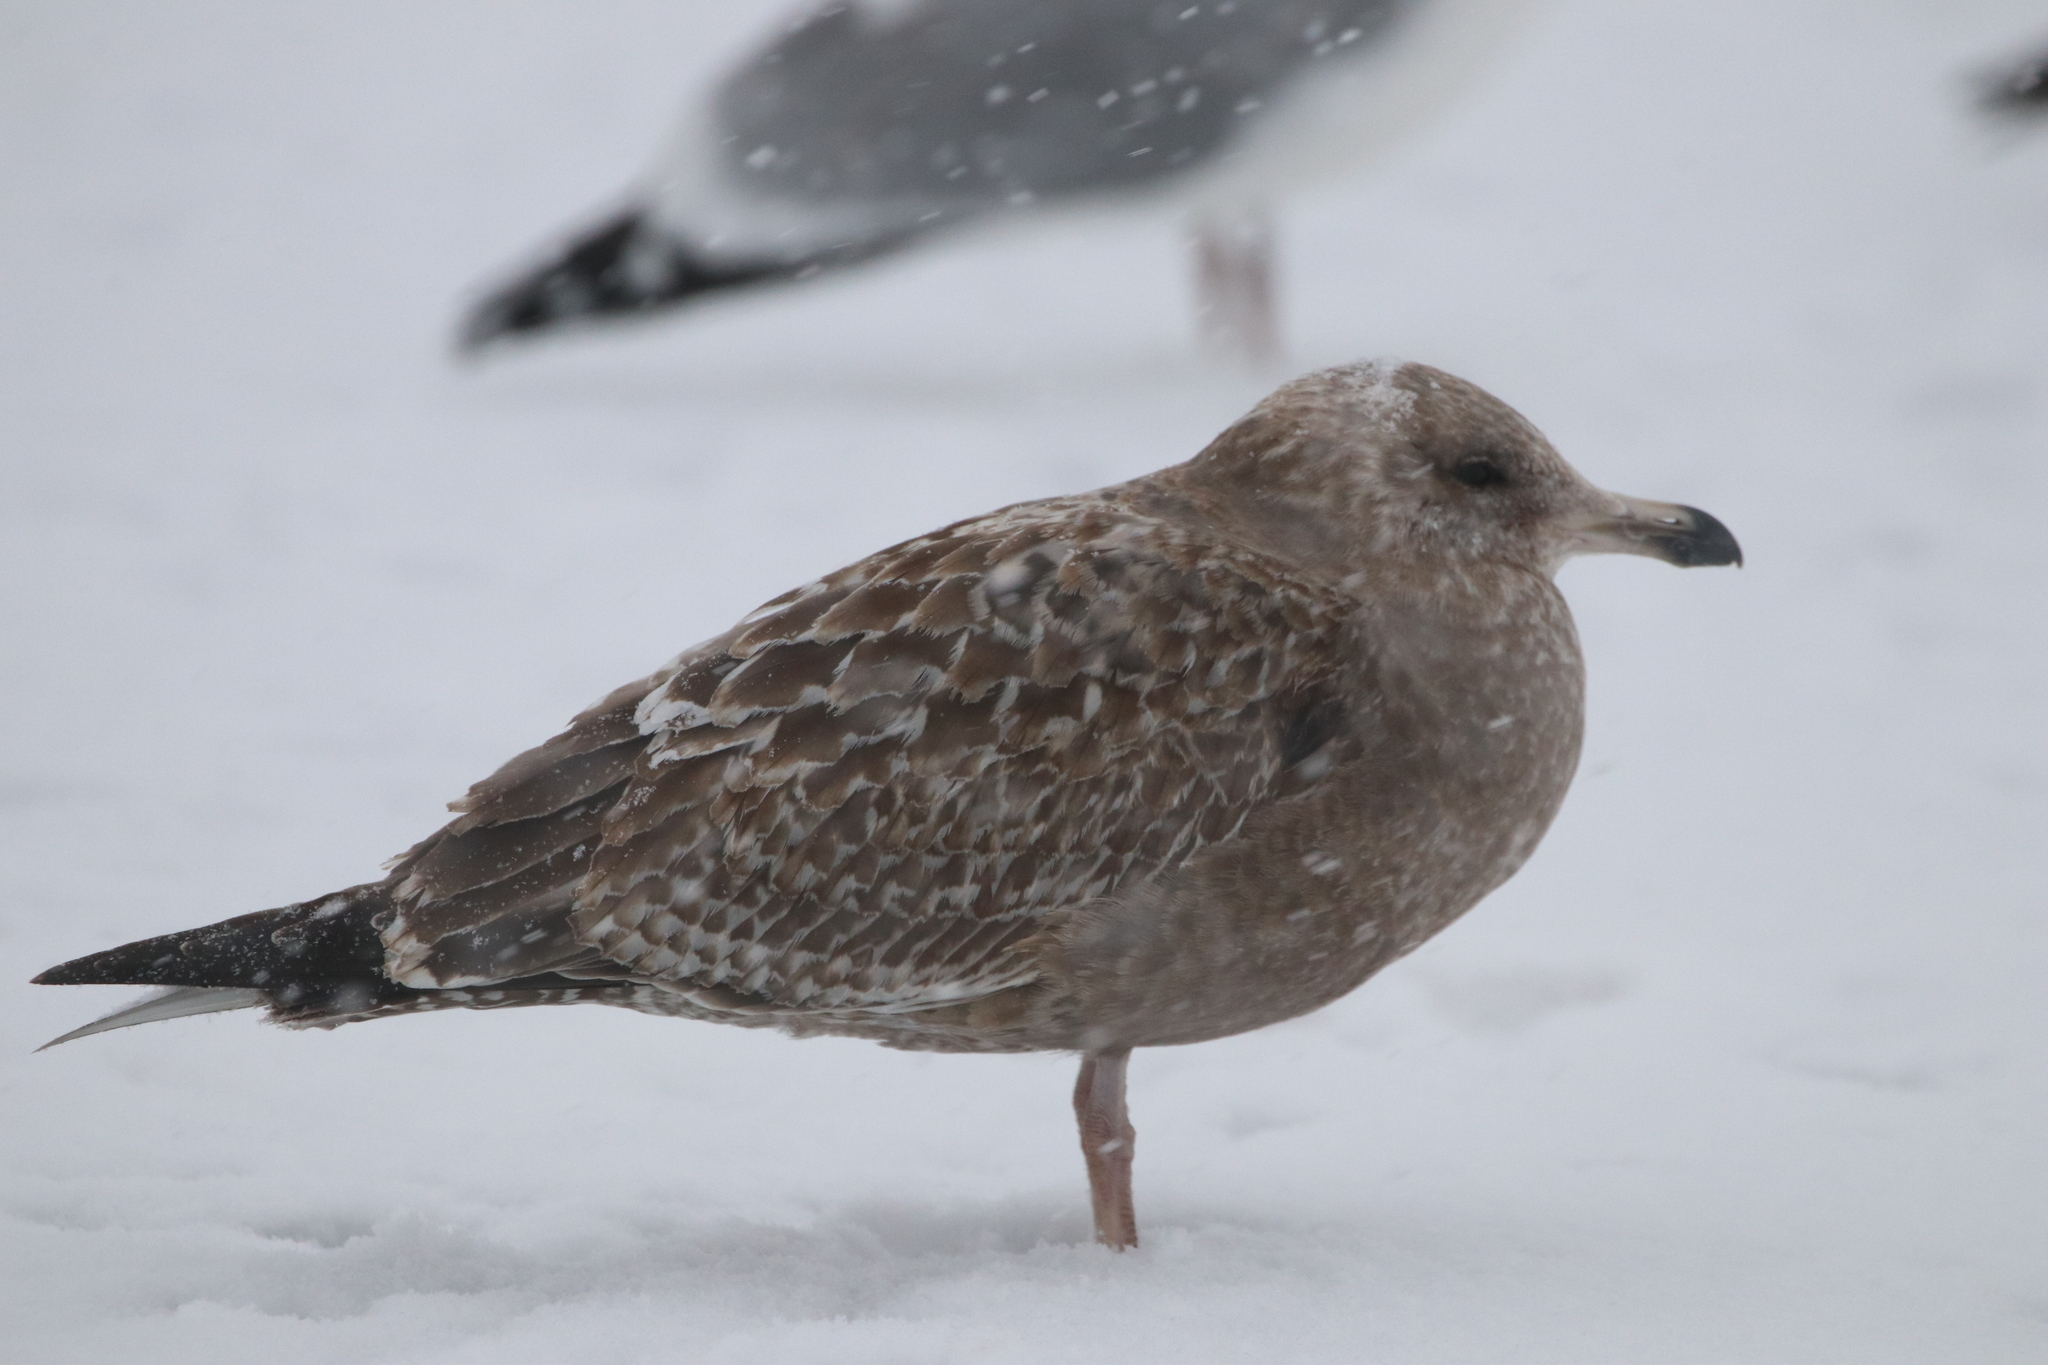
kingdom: Animalia
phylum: Chordata
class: Aves
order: Charadriiformes
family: Laridae
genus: Larus
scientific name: Larus argentatus
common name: Herring gull
